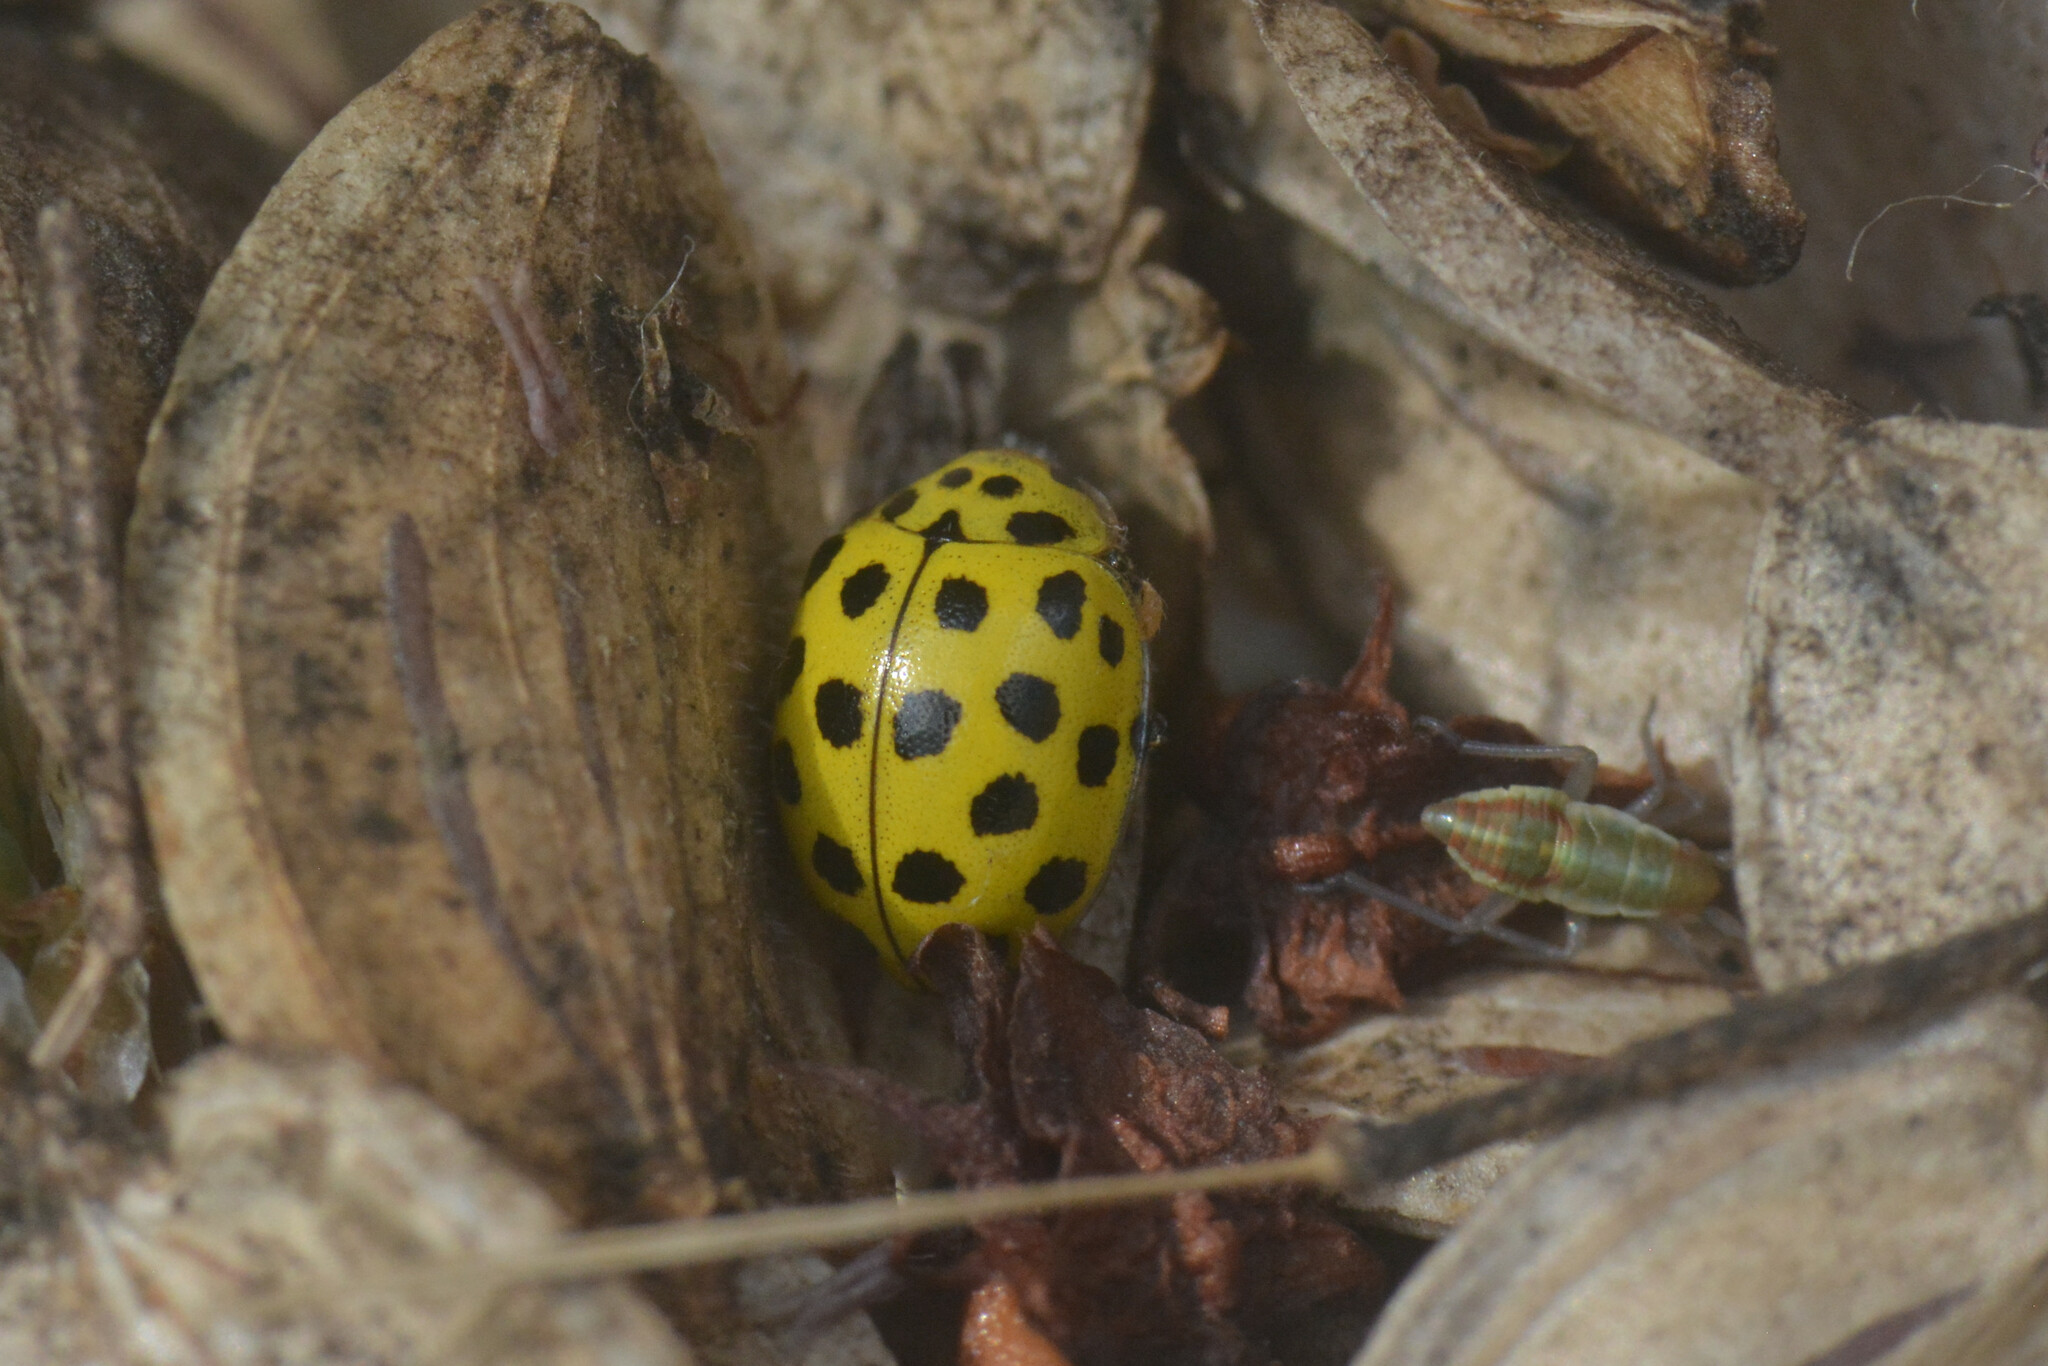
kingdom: Animalia
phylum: Arthropoda
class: Insecta
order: Coleoptera
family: Coccinellidae
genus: Psyllobora
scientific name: Psyllobora vigintiduopunctata
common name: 22-spot ladybird
